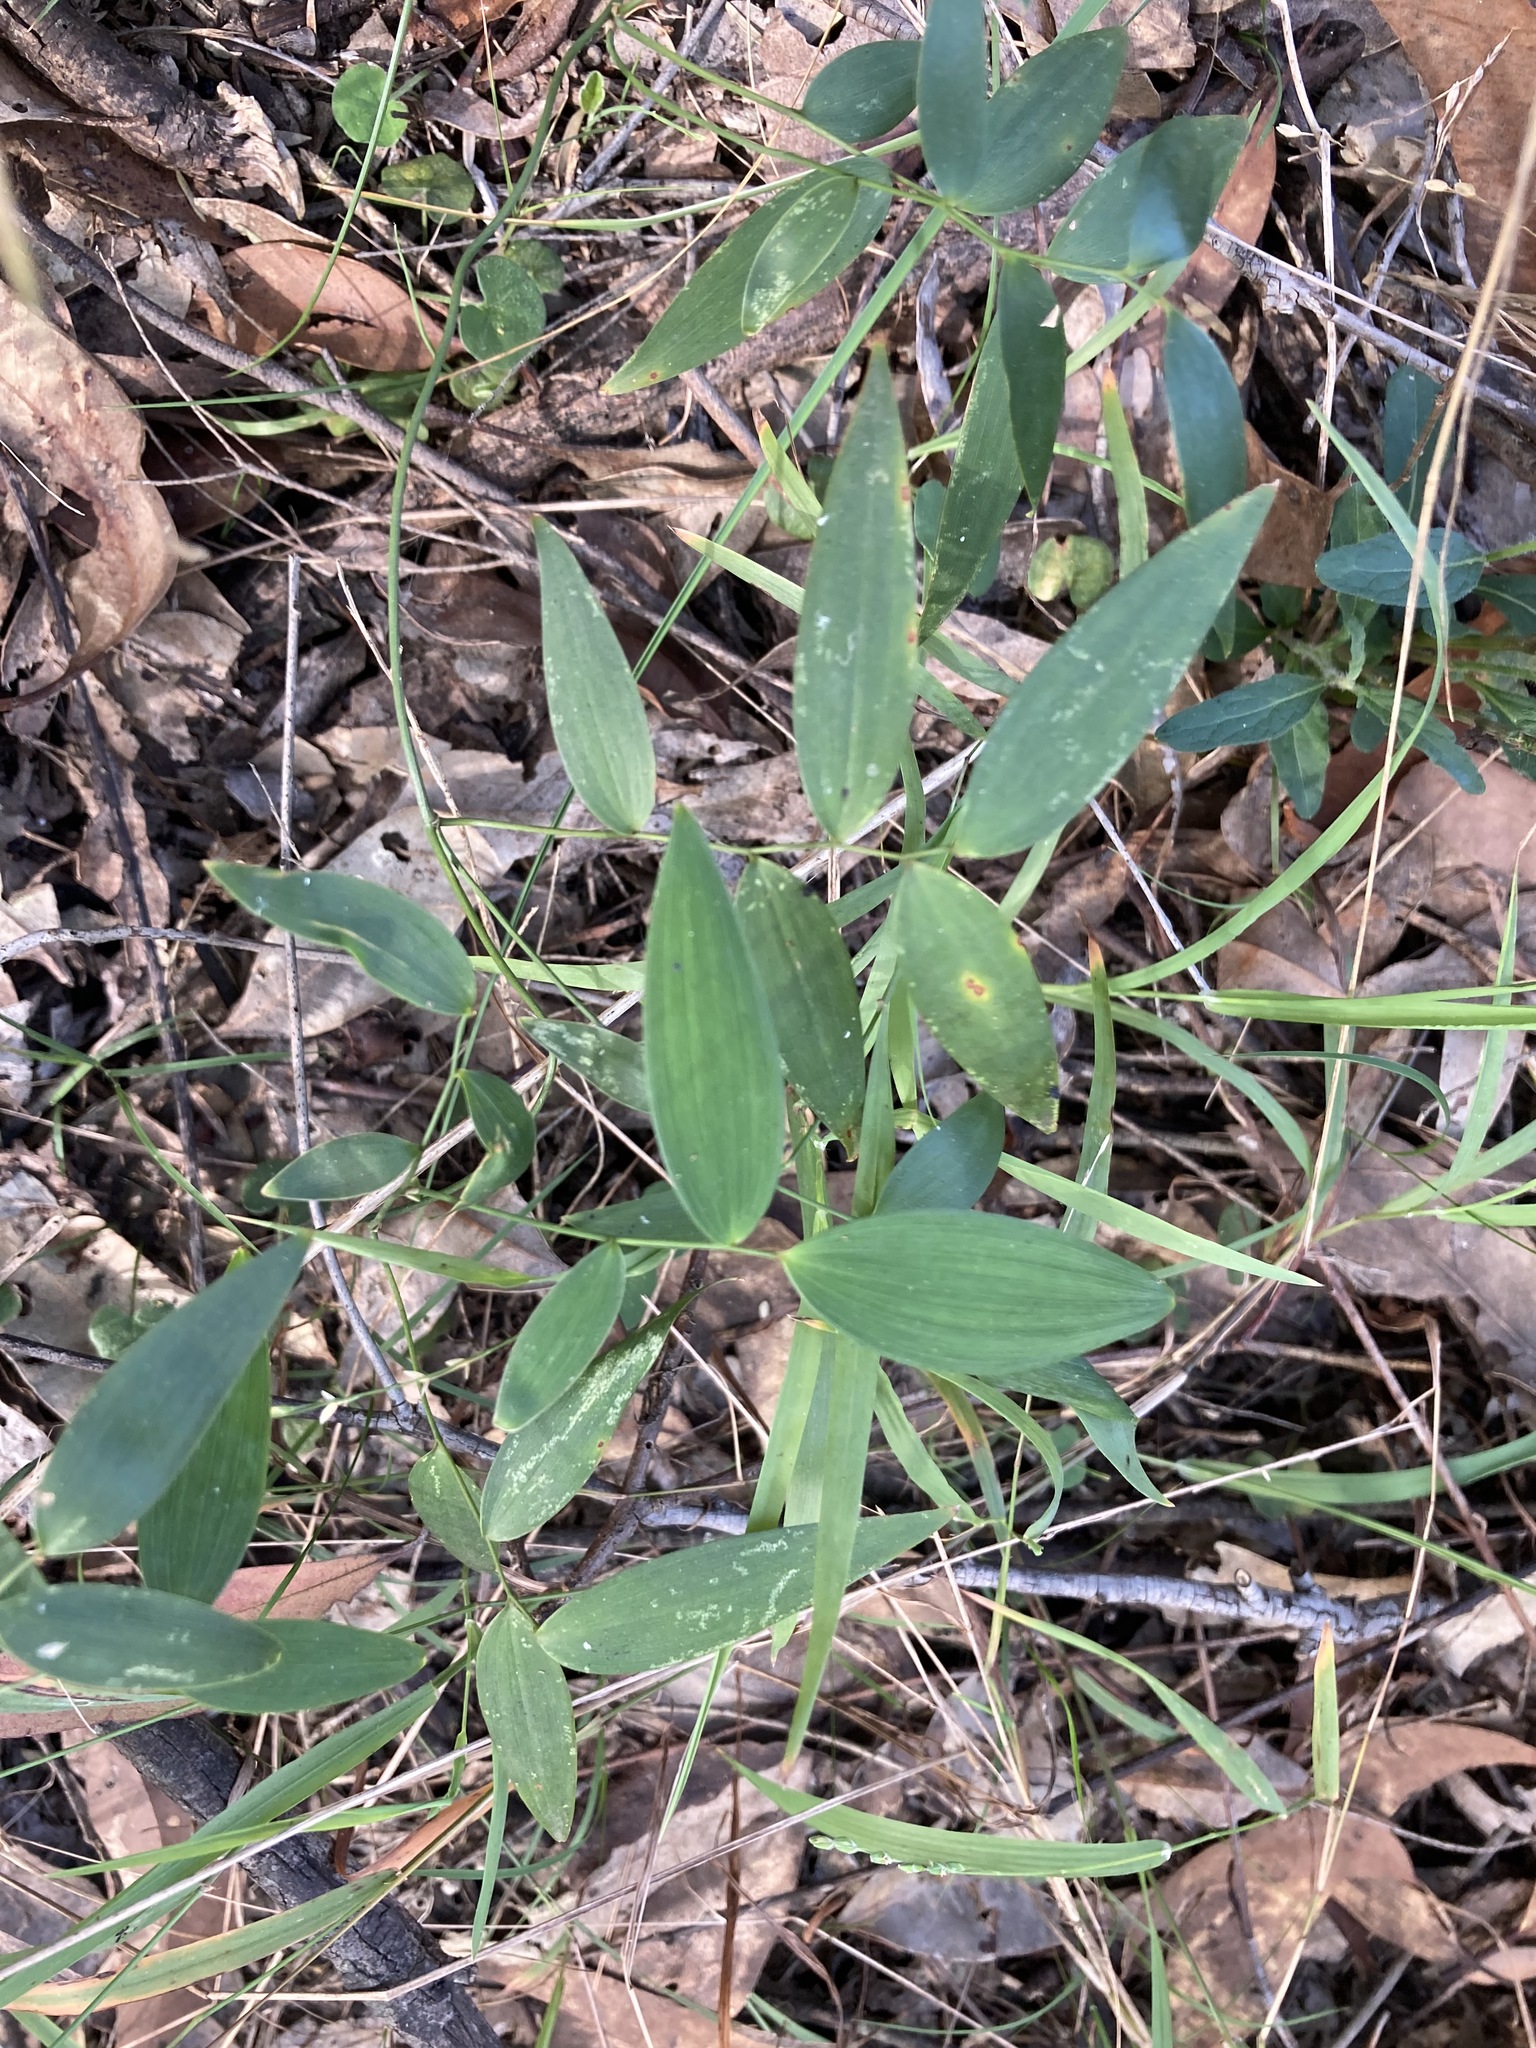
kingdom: Plantae
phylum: Tracheophyta
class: Liliopsida
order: Asparagales
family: Asparagaceae
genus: Eustrephus
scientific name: Eustrephus latifolius
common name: Orangevine
